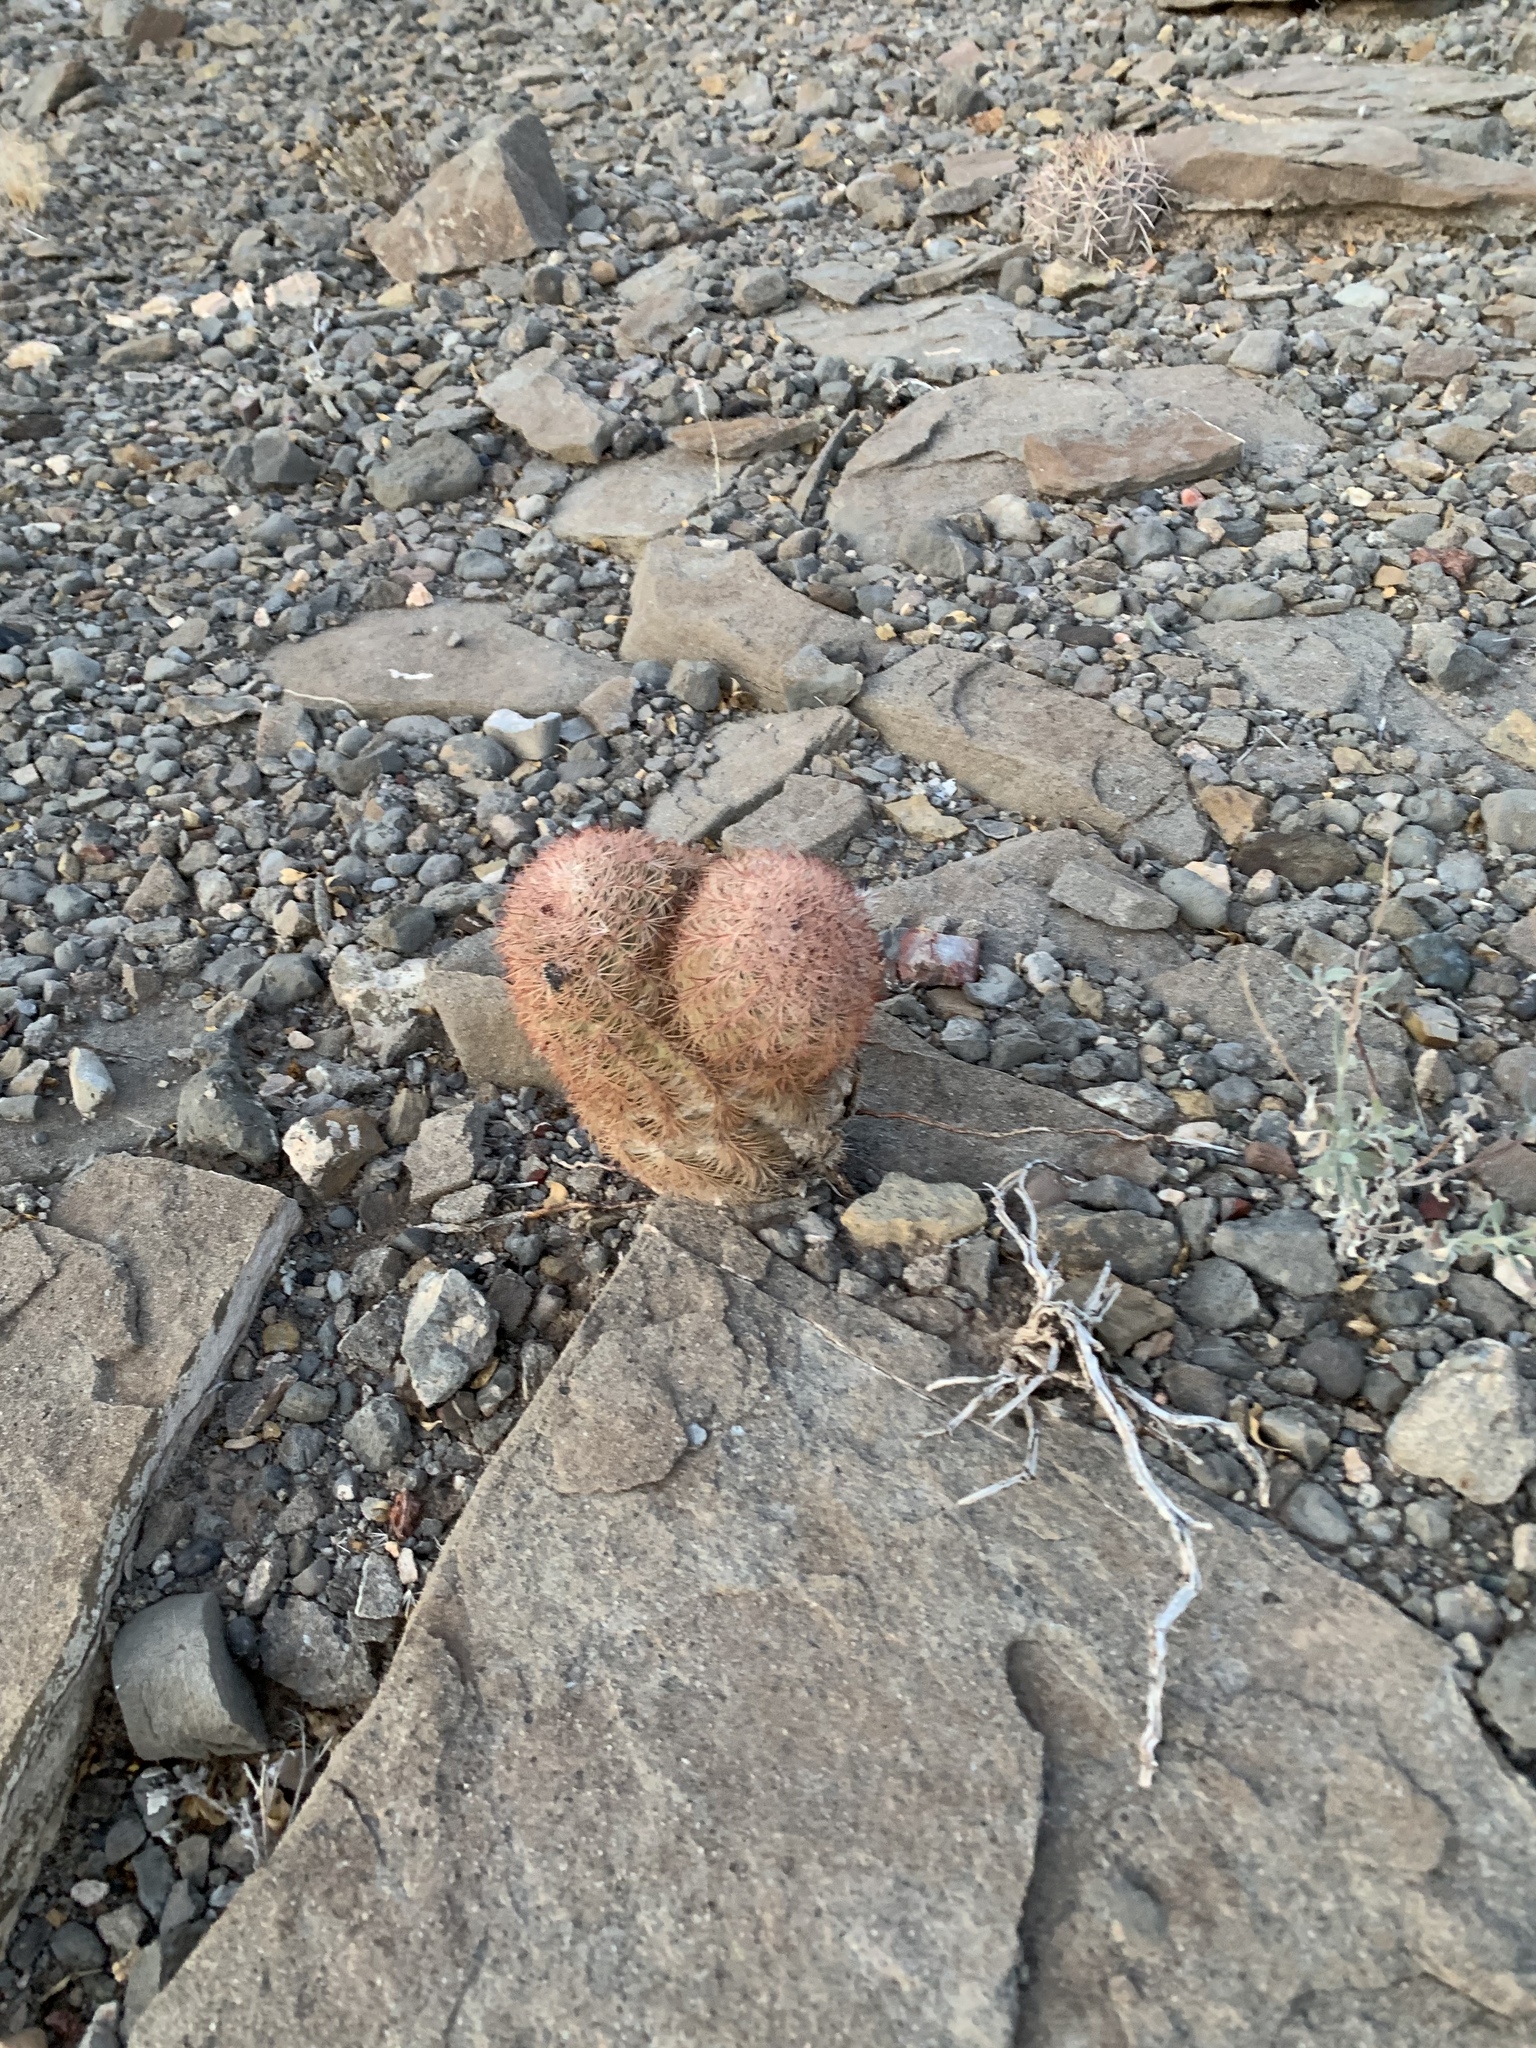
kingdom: Plantae
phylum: Tracheophyta
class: Magnoliopsida
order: Caryophyllales
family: Cactaceae
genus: Echinocereus
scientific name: Echinocereus dasyacanthus
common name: Spiny hedgehog cactus
